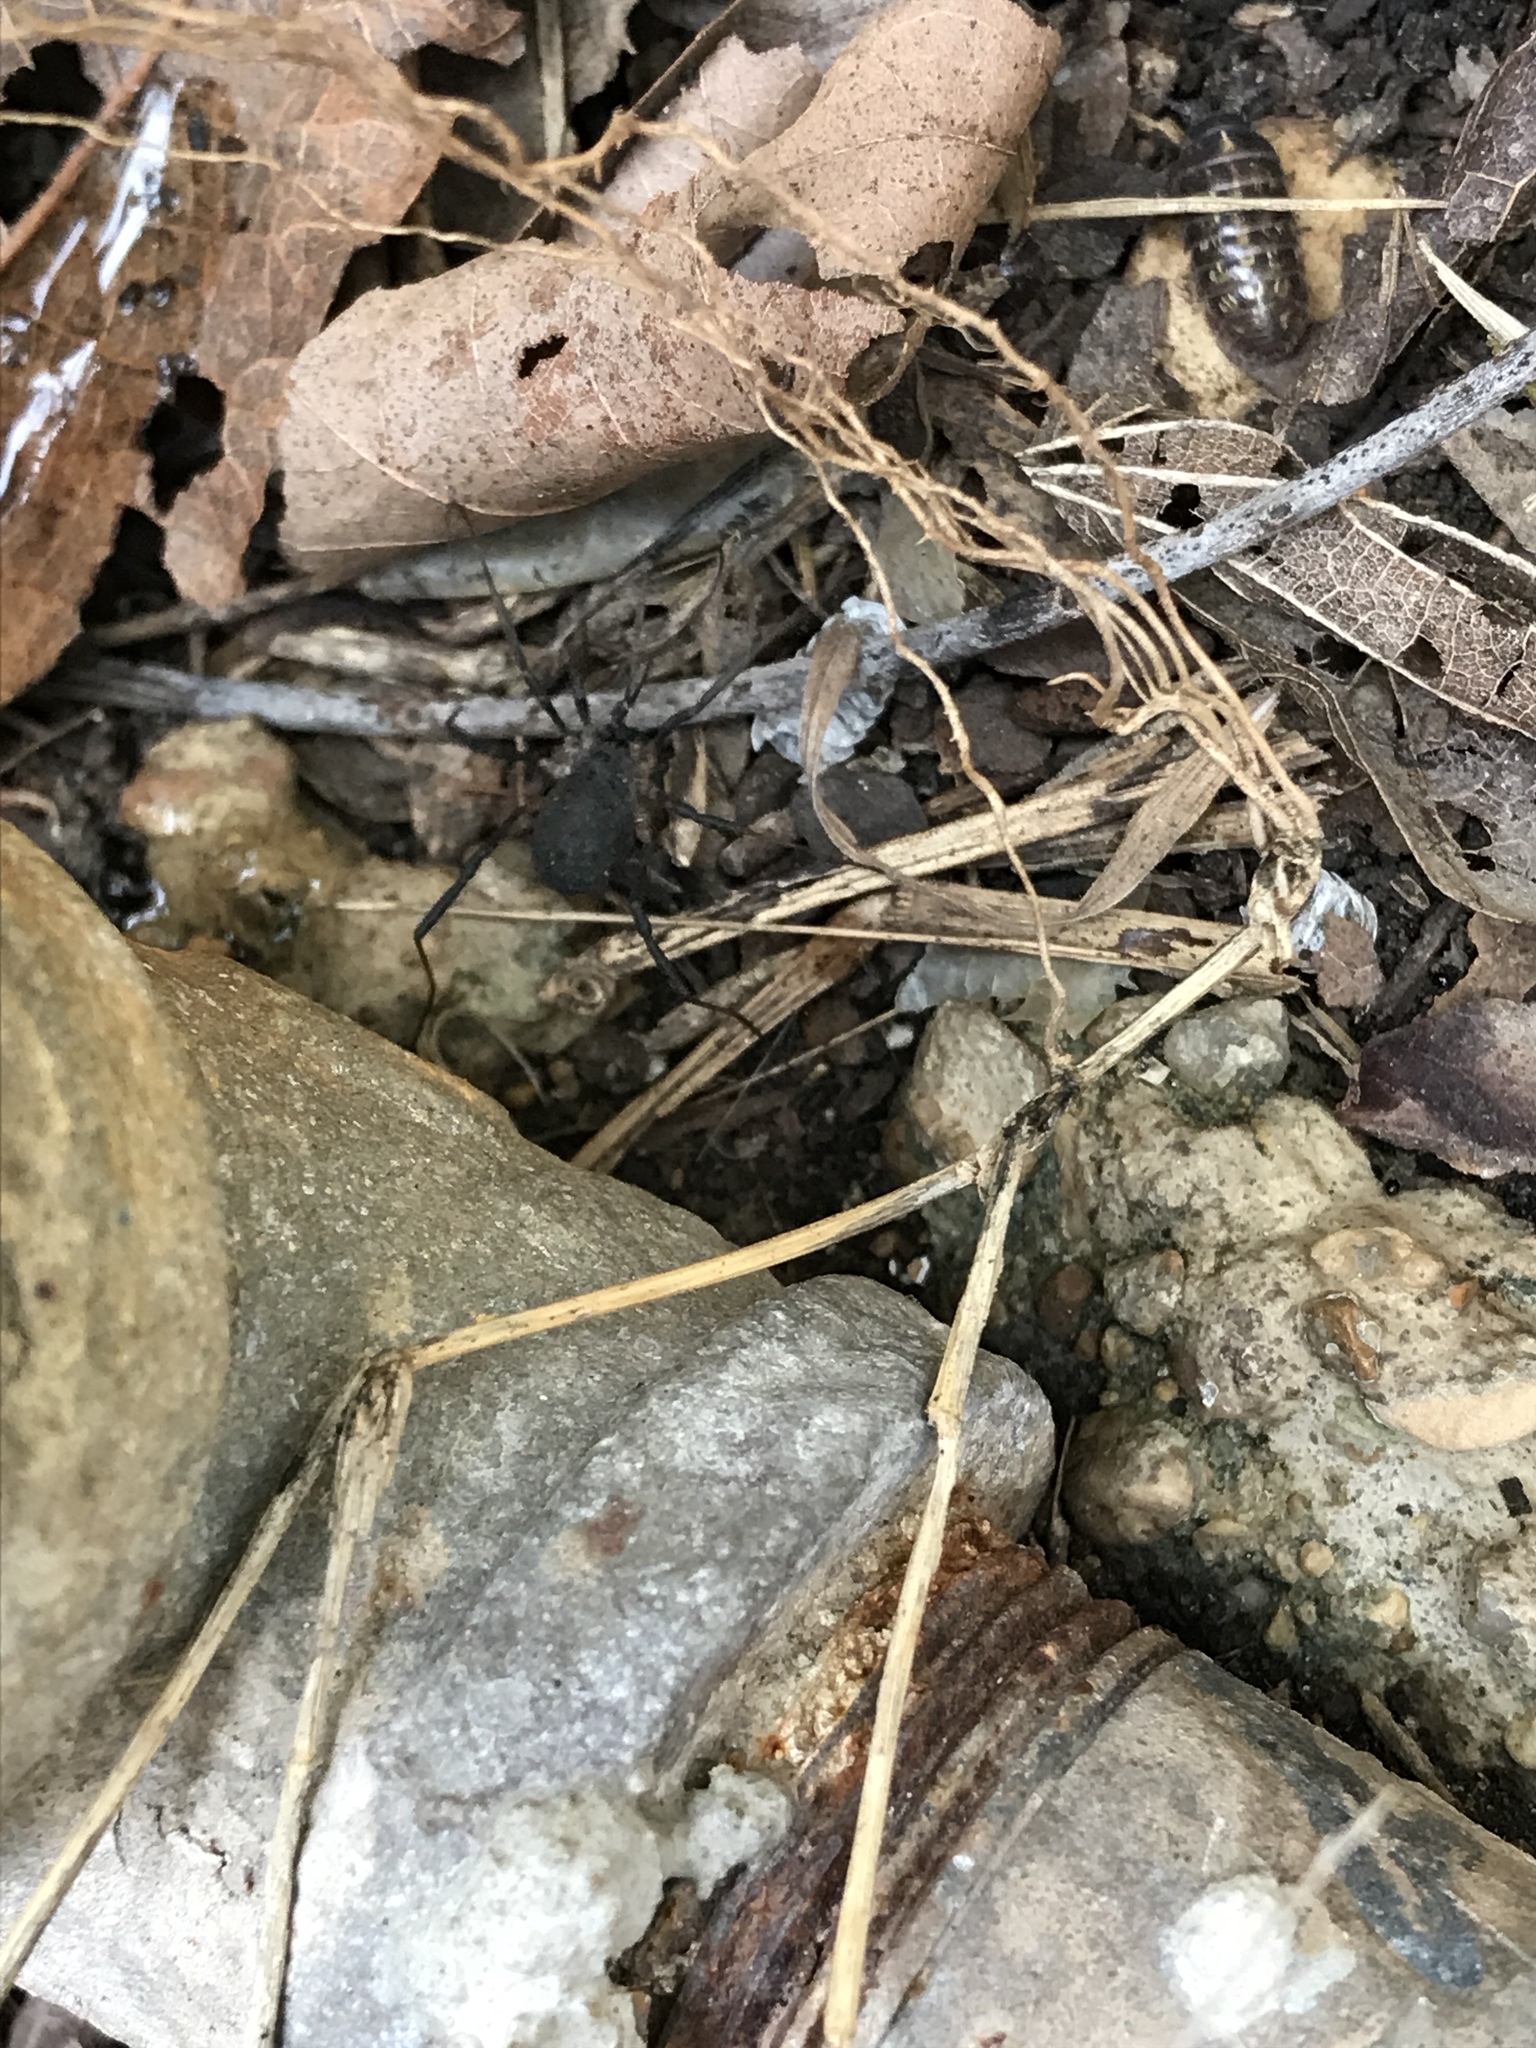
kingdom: Animalia
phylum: Arthropoda
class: Arachnida
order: Opiliones
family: Sclerosomatidae
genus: Eumesosoma
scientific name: Eumesosoma roeweri
